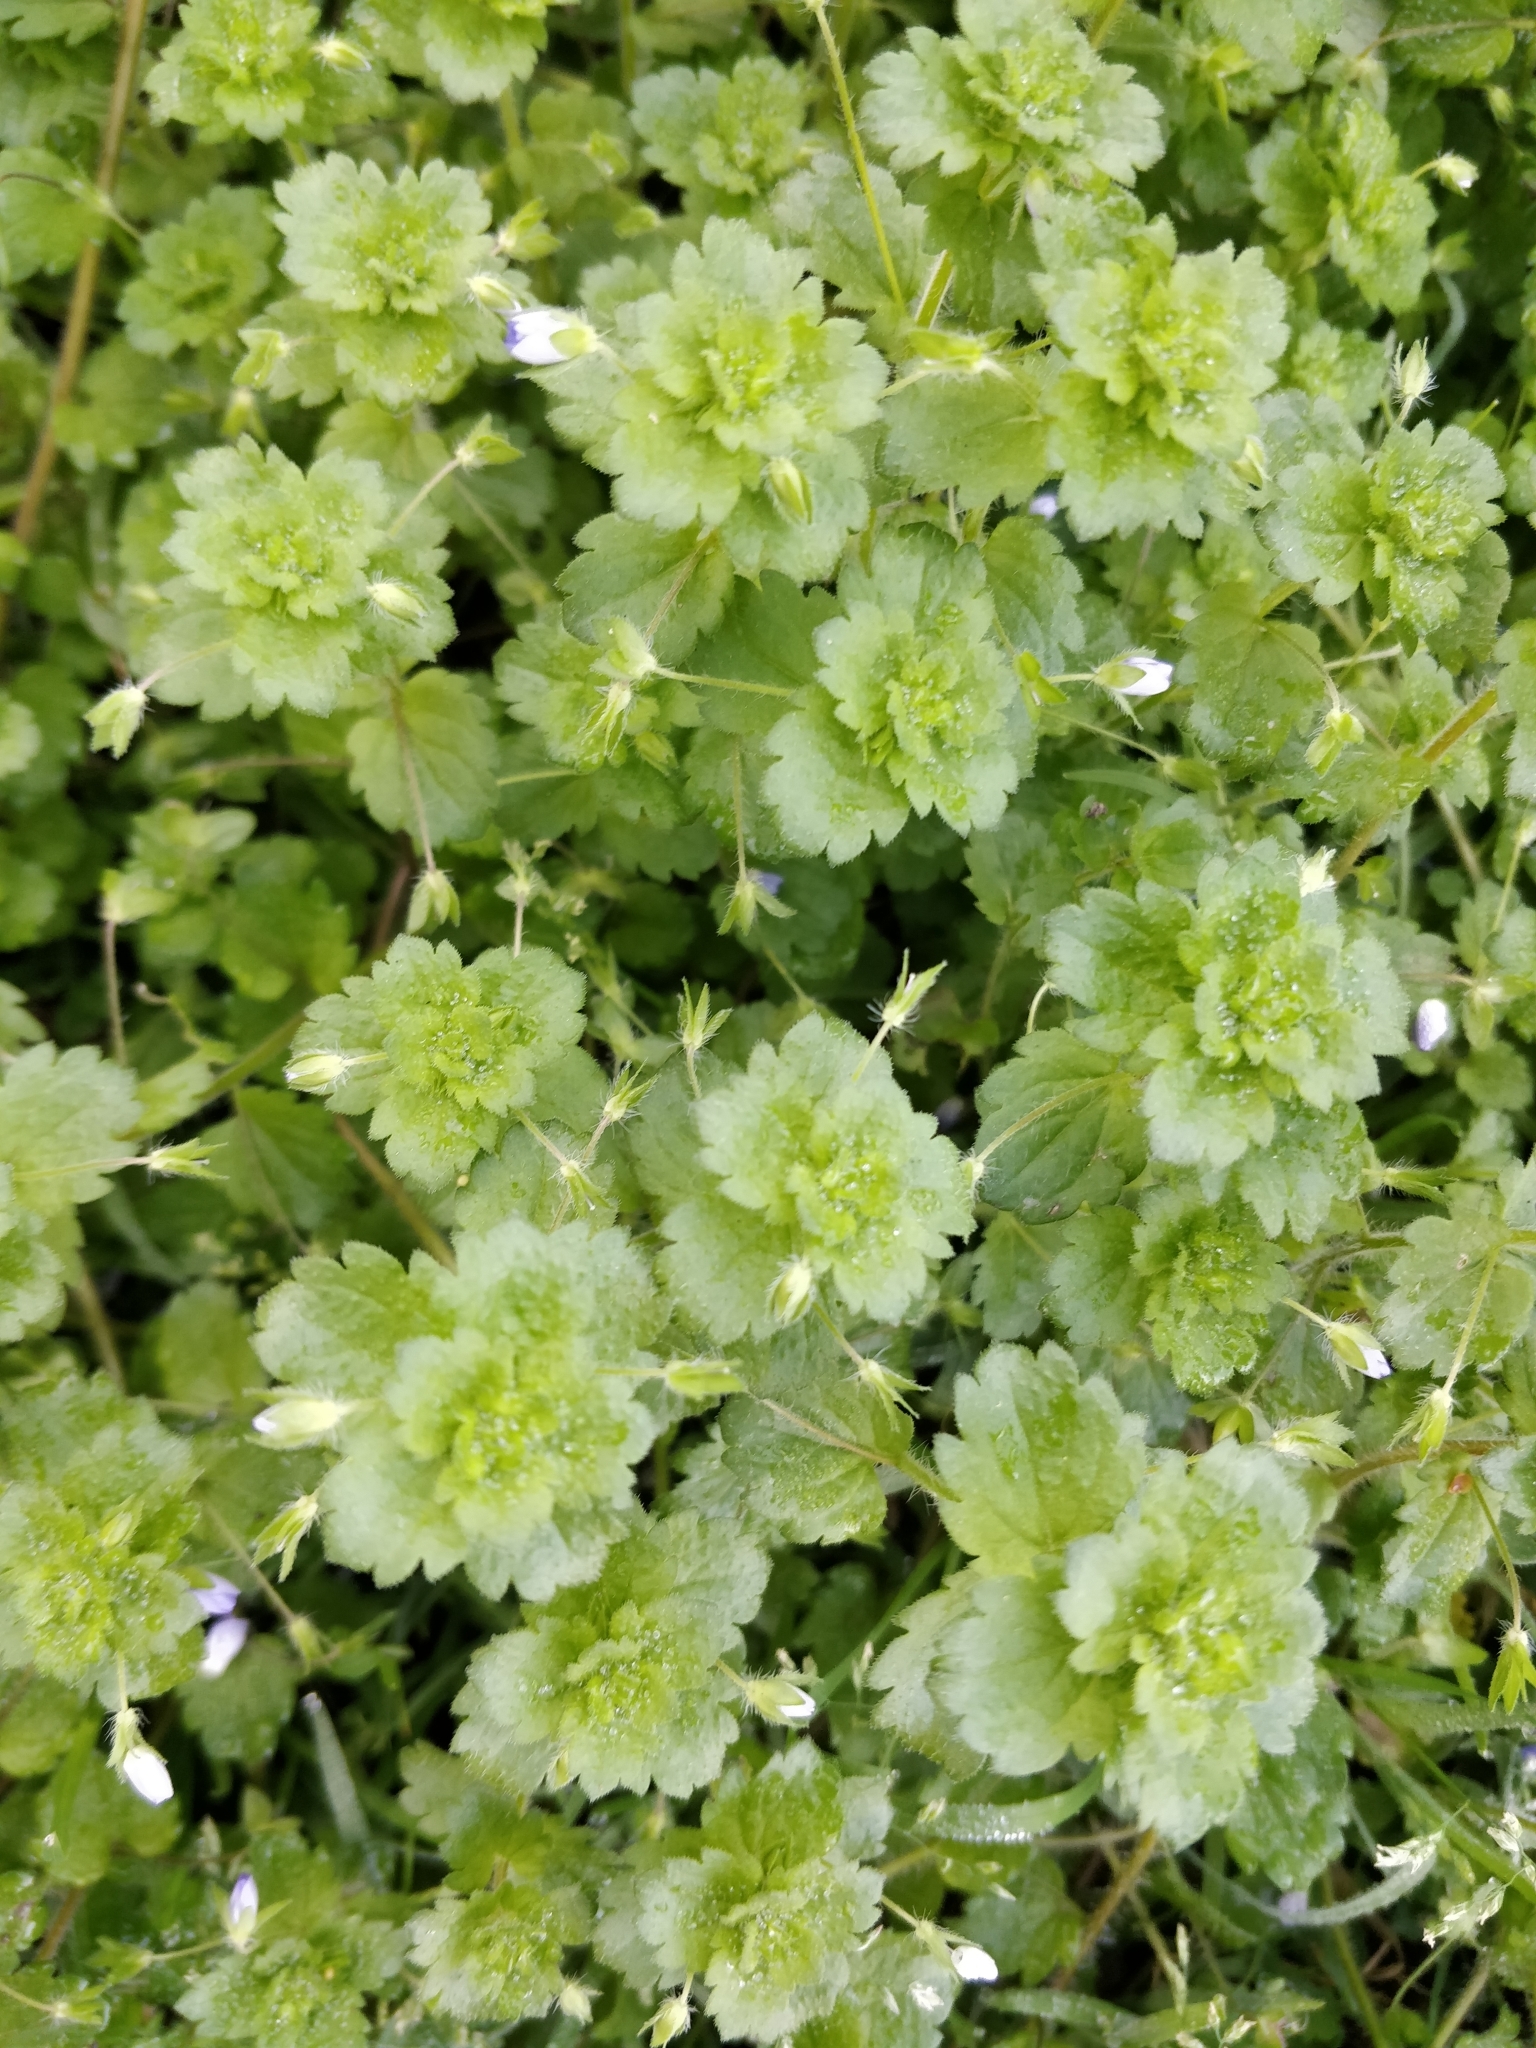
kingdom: Plantae
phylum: Tracheophyta
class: Magnoliopsida
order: Lamiales
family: Plantaginaceae
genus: Veronica
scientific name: Veronica persica
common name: Common field-speedwell
